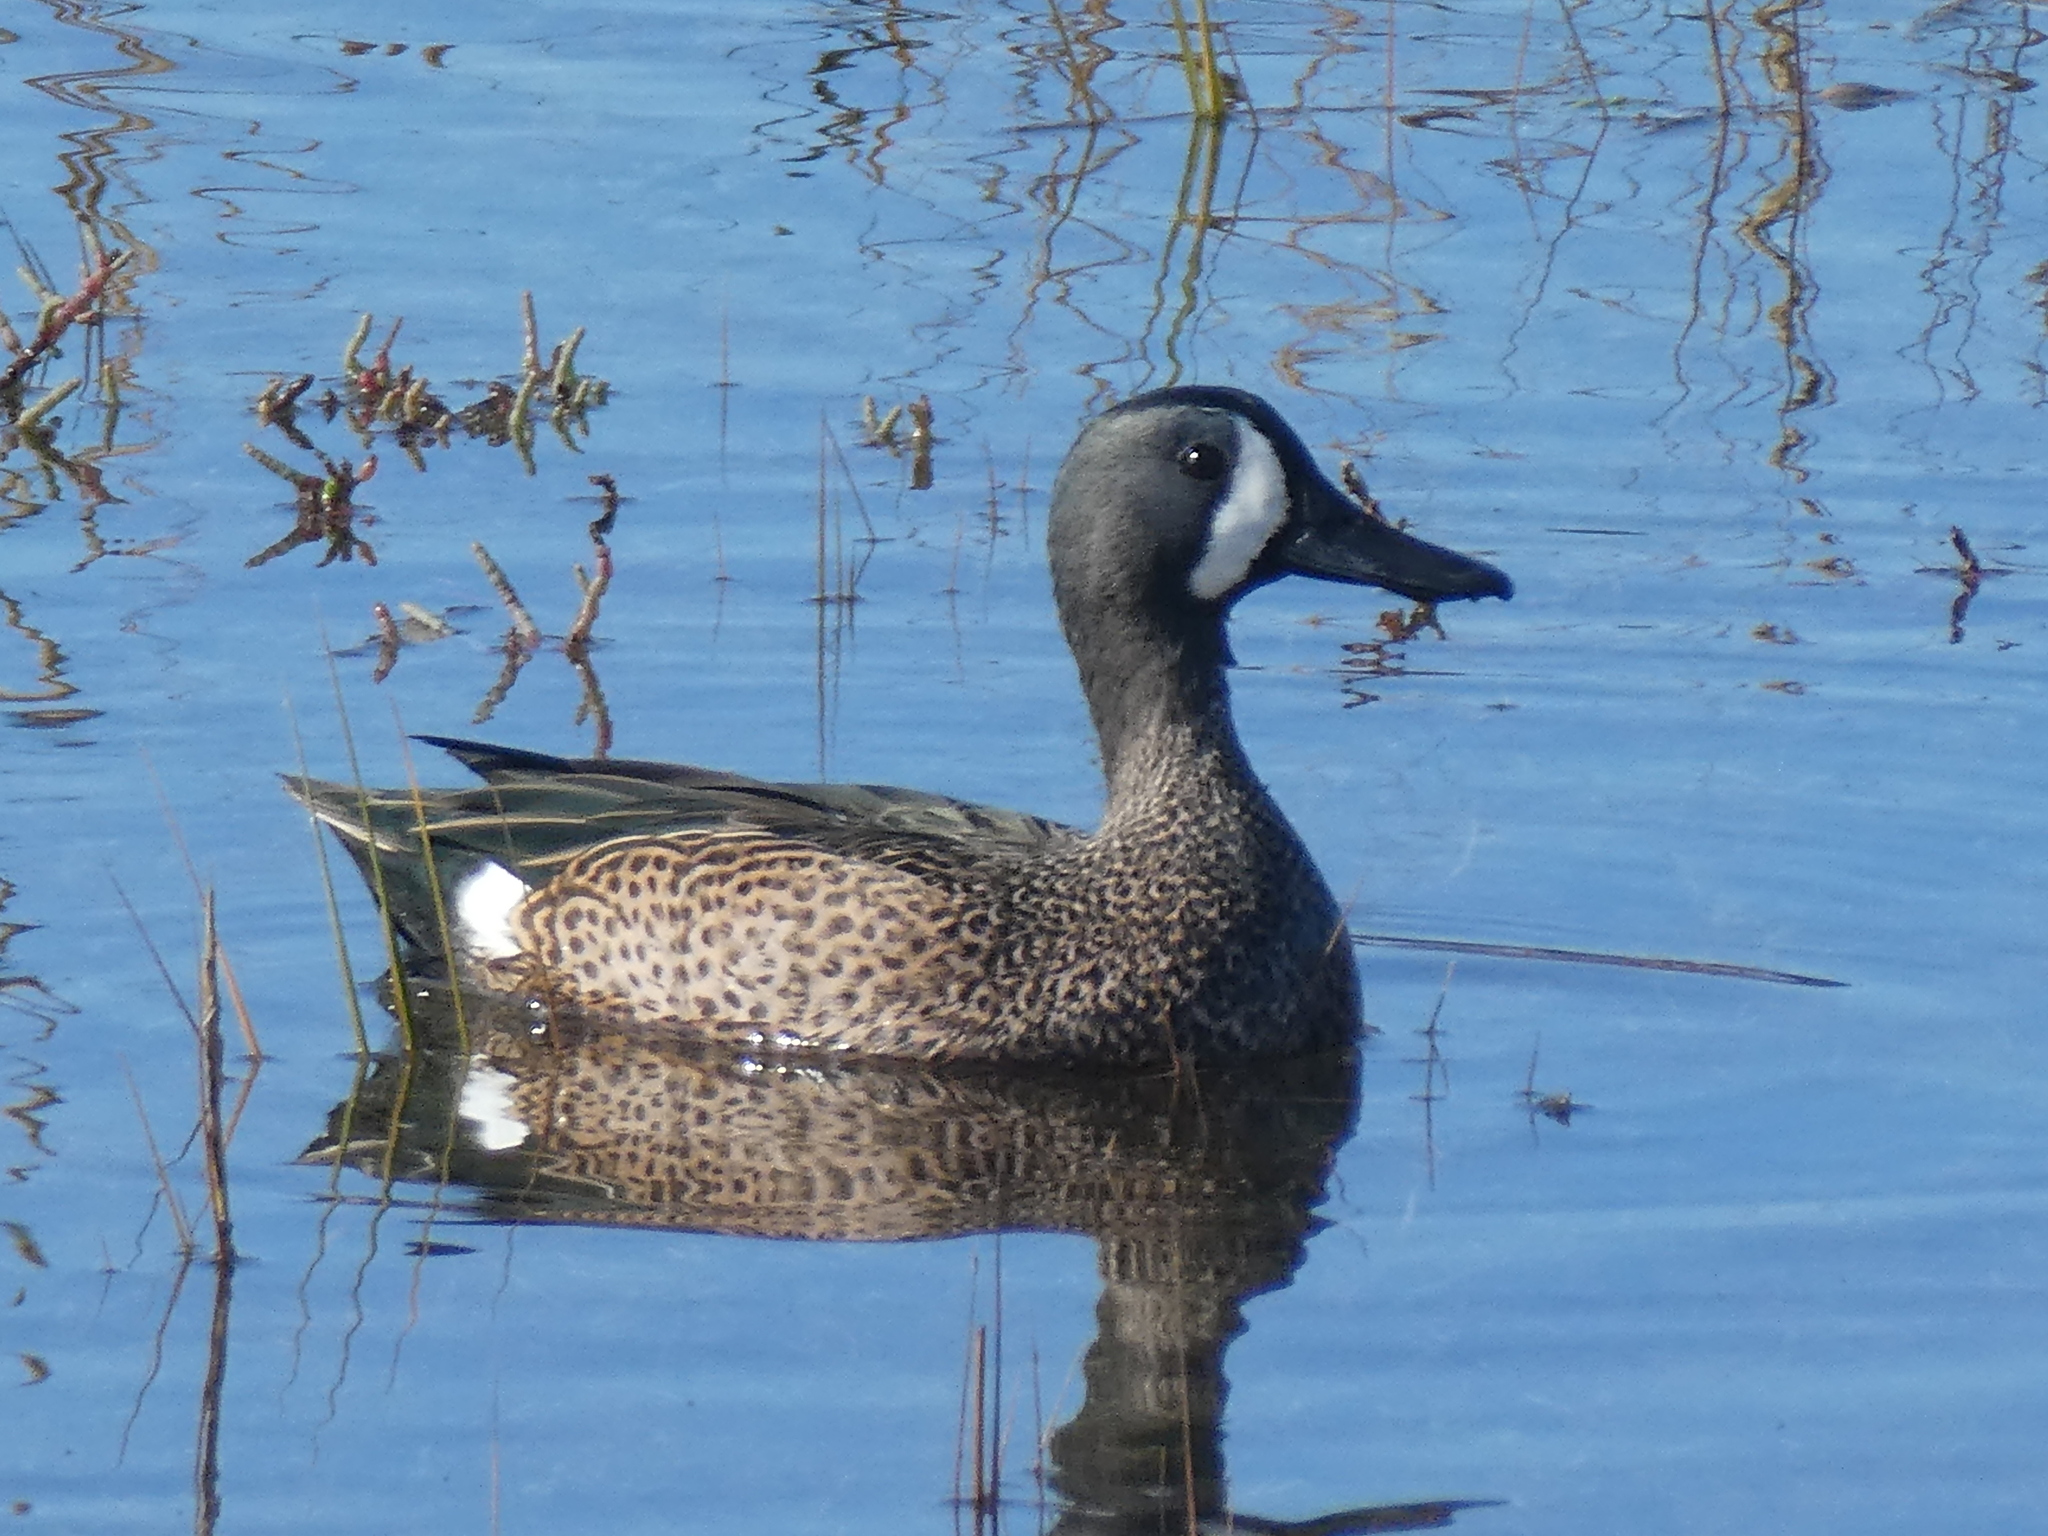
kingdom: Animalia
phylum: Chordata
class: Aves
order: Anseriformes
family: Anatidae
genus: Spatula
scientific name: Spatula discors
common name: Blue-winged teal
